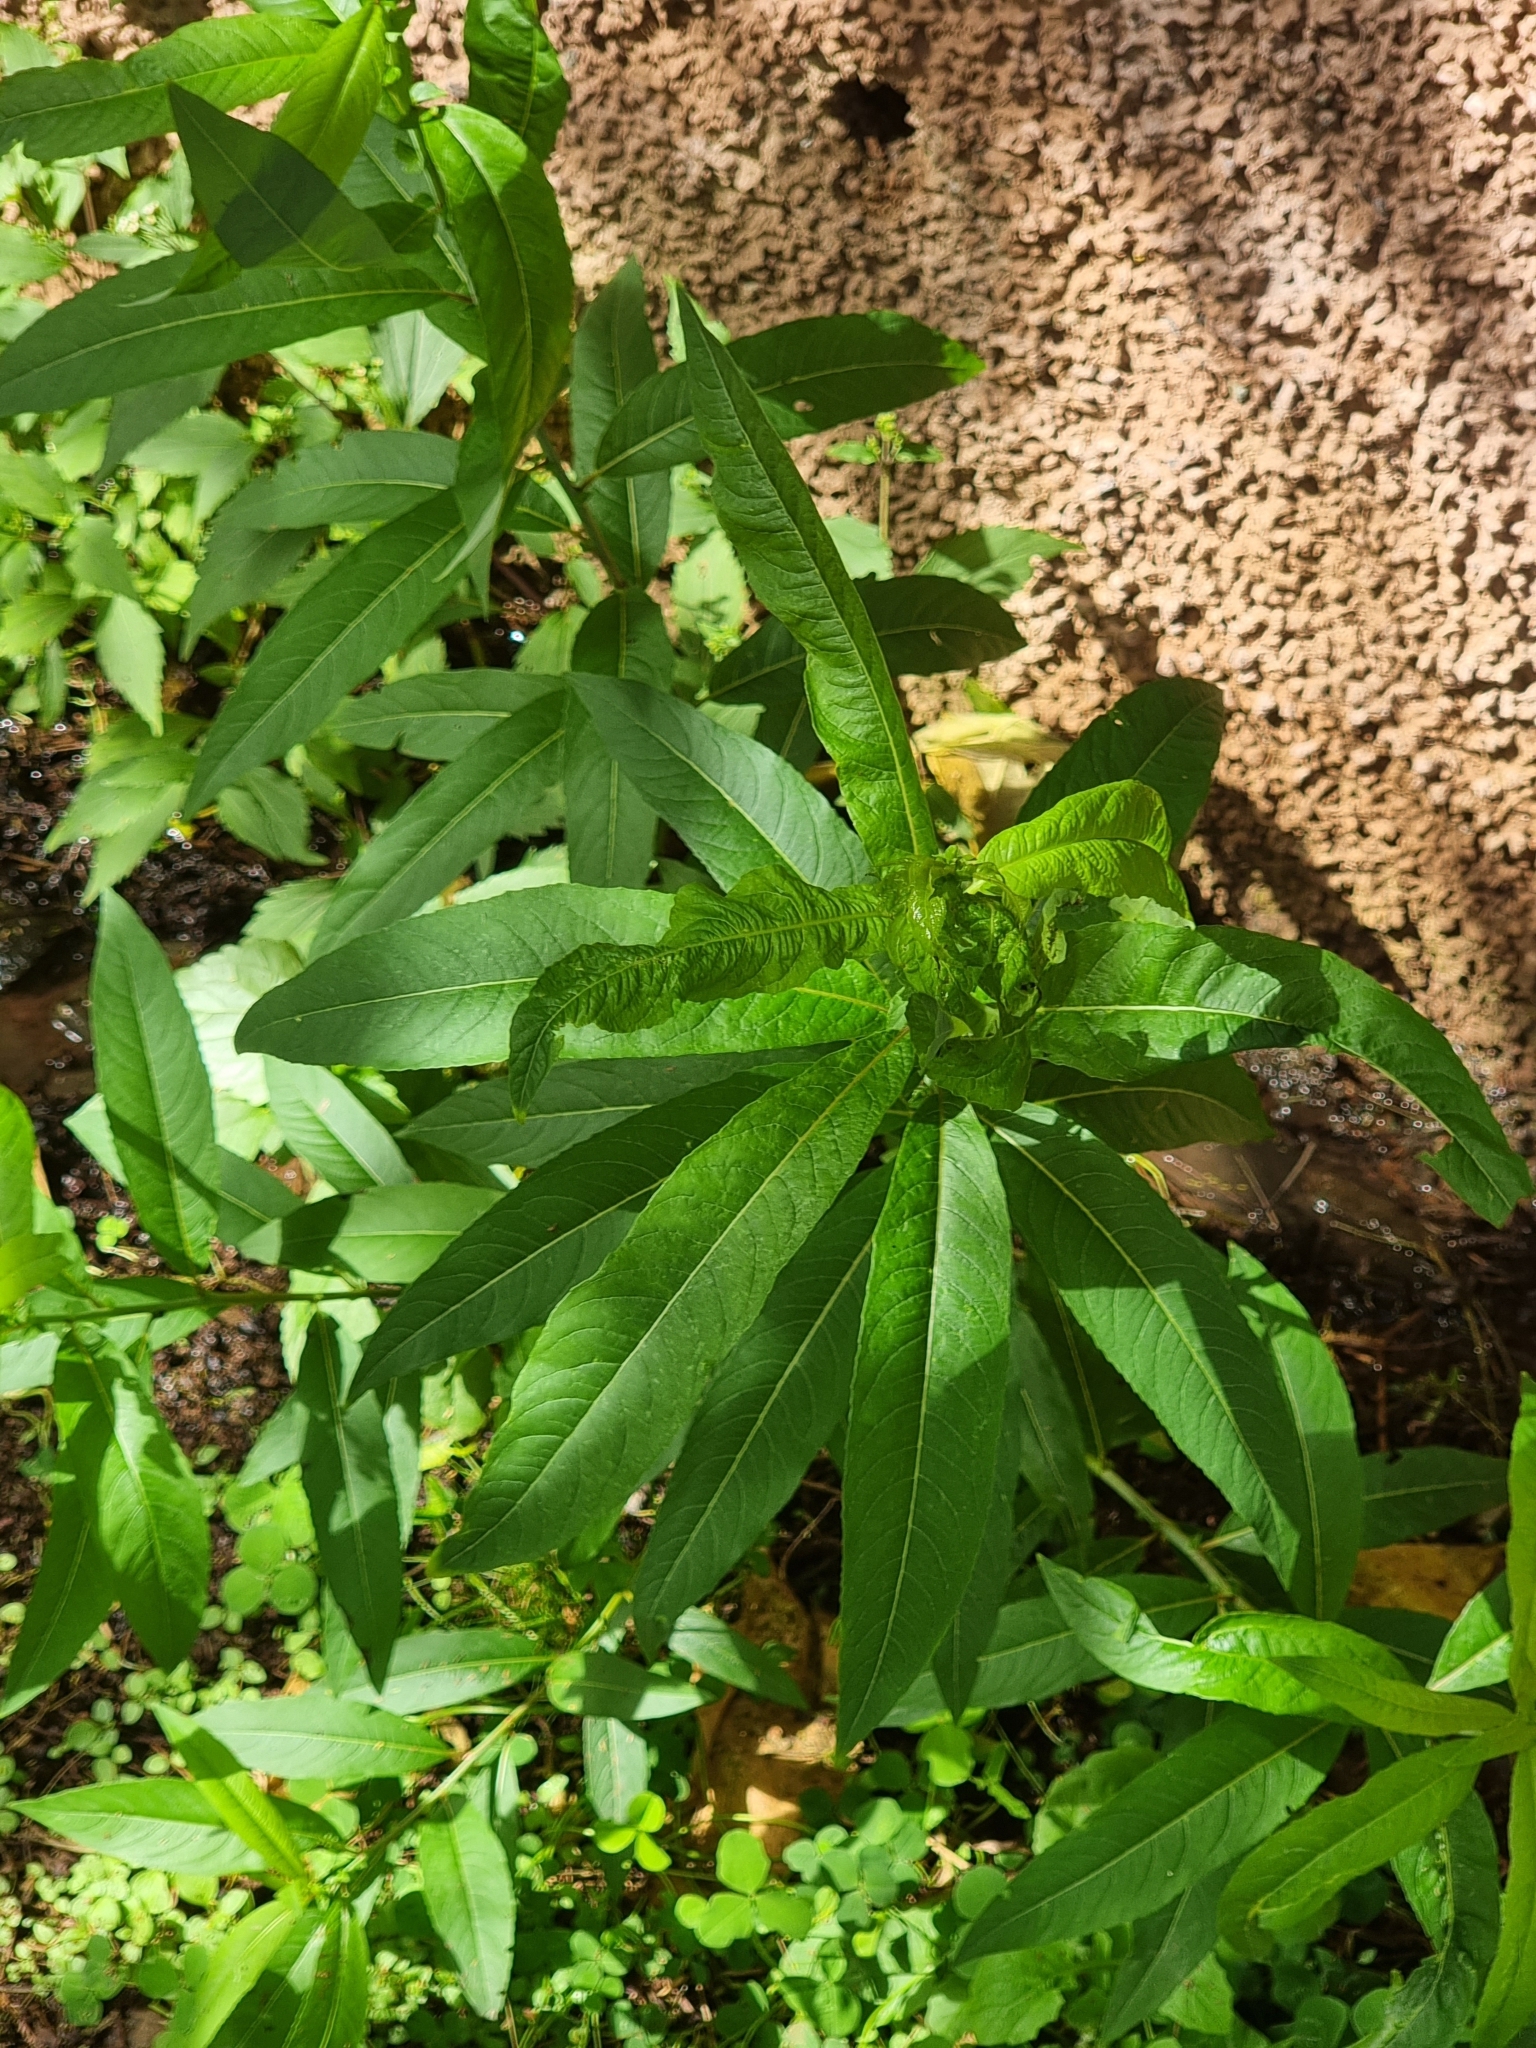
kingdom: Plantae
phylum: Tracheophyta
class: Magnoliopsida
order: Malpighiales
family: Salicaceae
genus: Salix
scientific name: Salix canariensis
